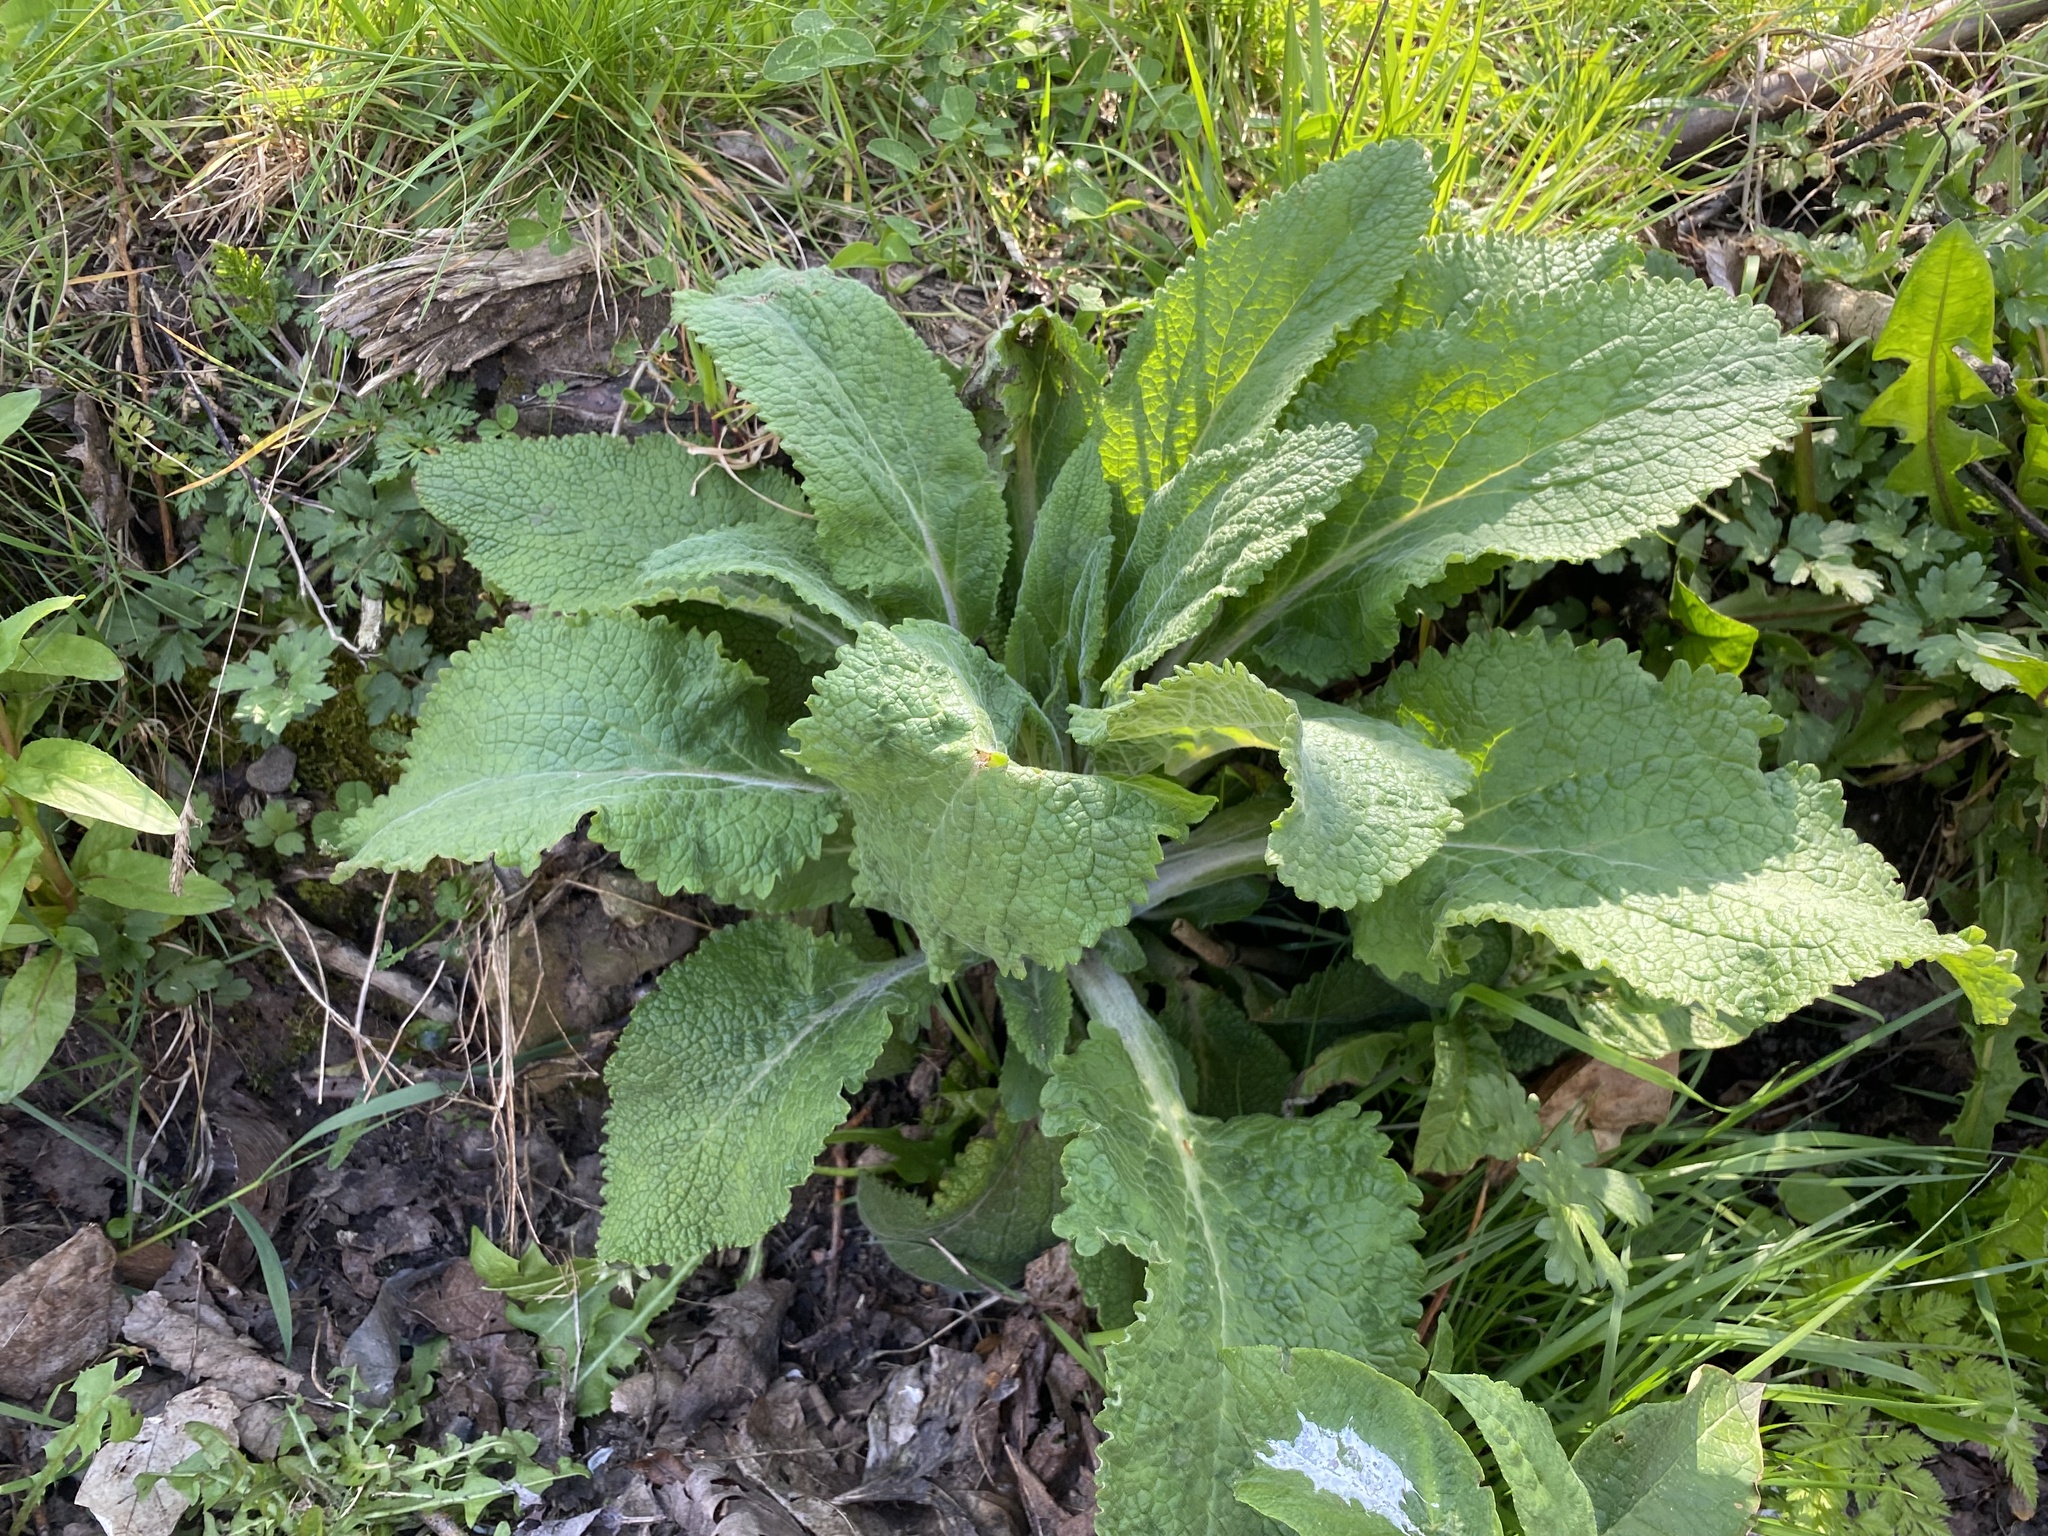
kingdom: Plantae
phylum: Tracheophyta
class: Magnoliopsida
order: Lamiales
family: Plantaginaceae
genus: Digitalis
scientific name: Digitalis purpurea
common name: Foxglove
